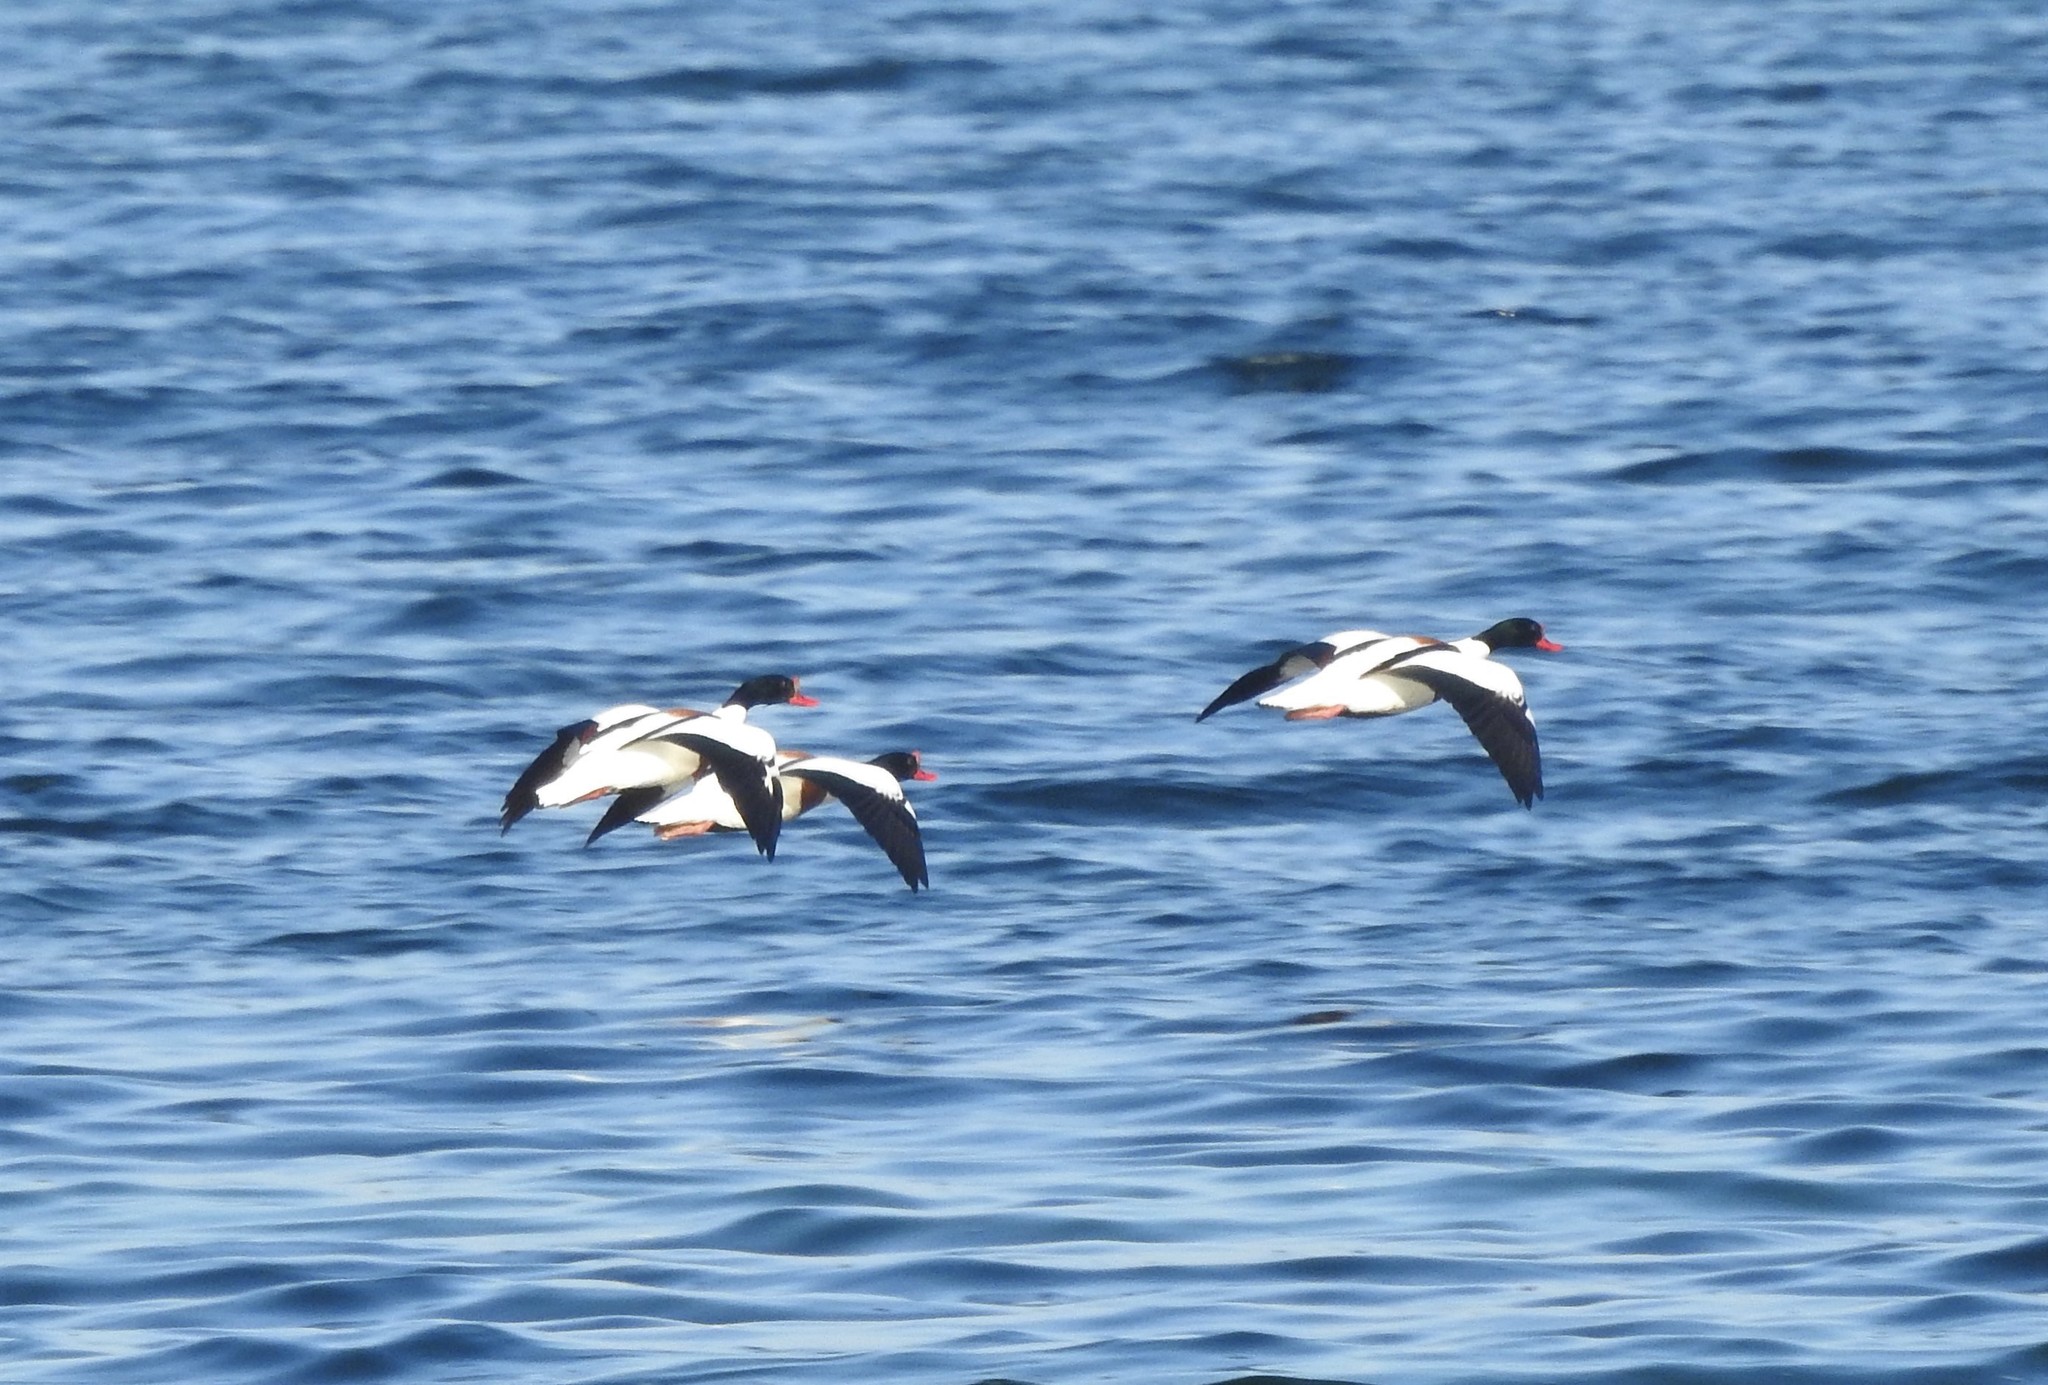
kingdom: Animalia
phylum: Chordata
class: Aves
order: Anseriformes
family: Anatidae
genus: Tadorna
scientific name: Tadorna tadorna
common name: Common shelduck
